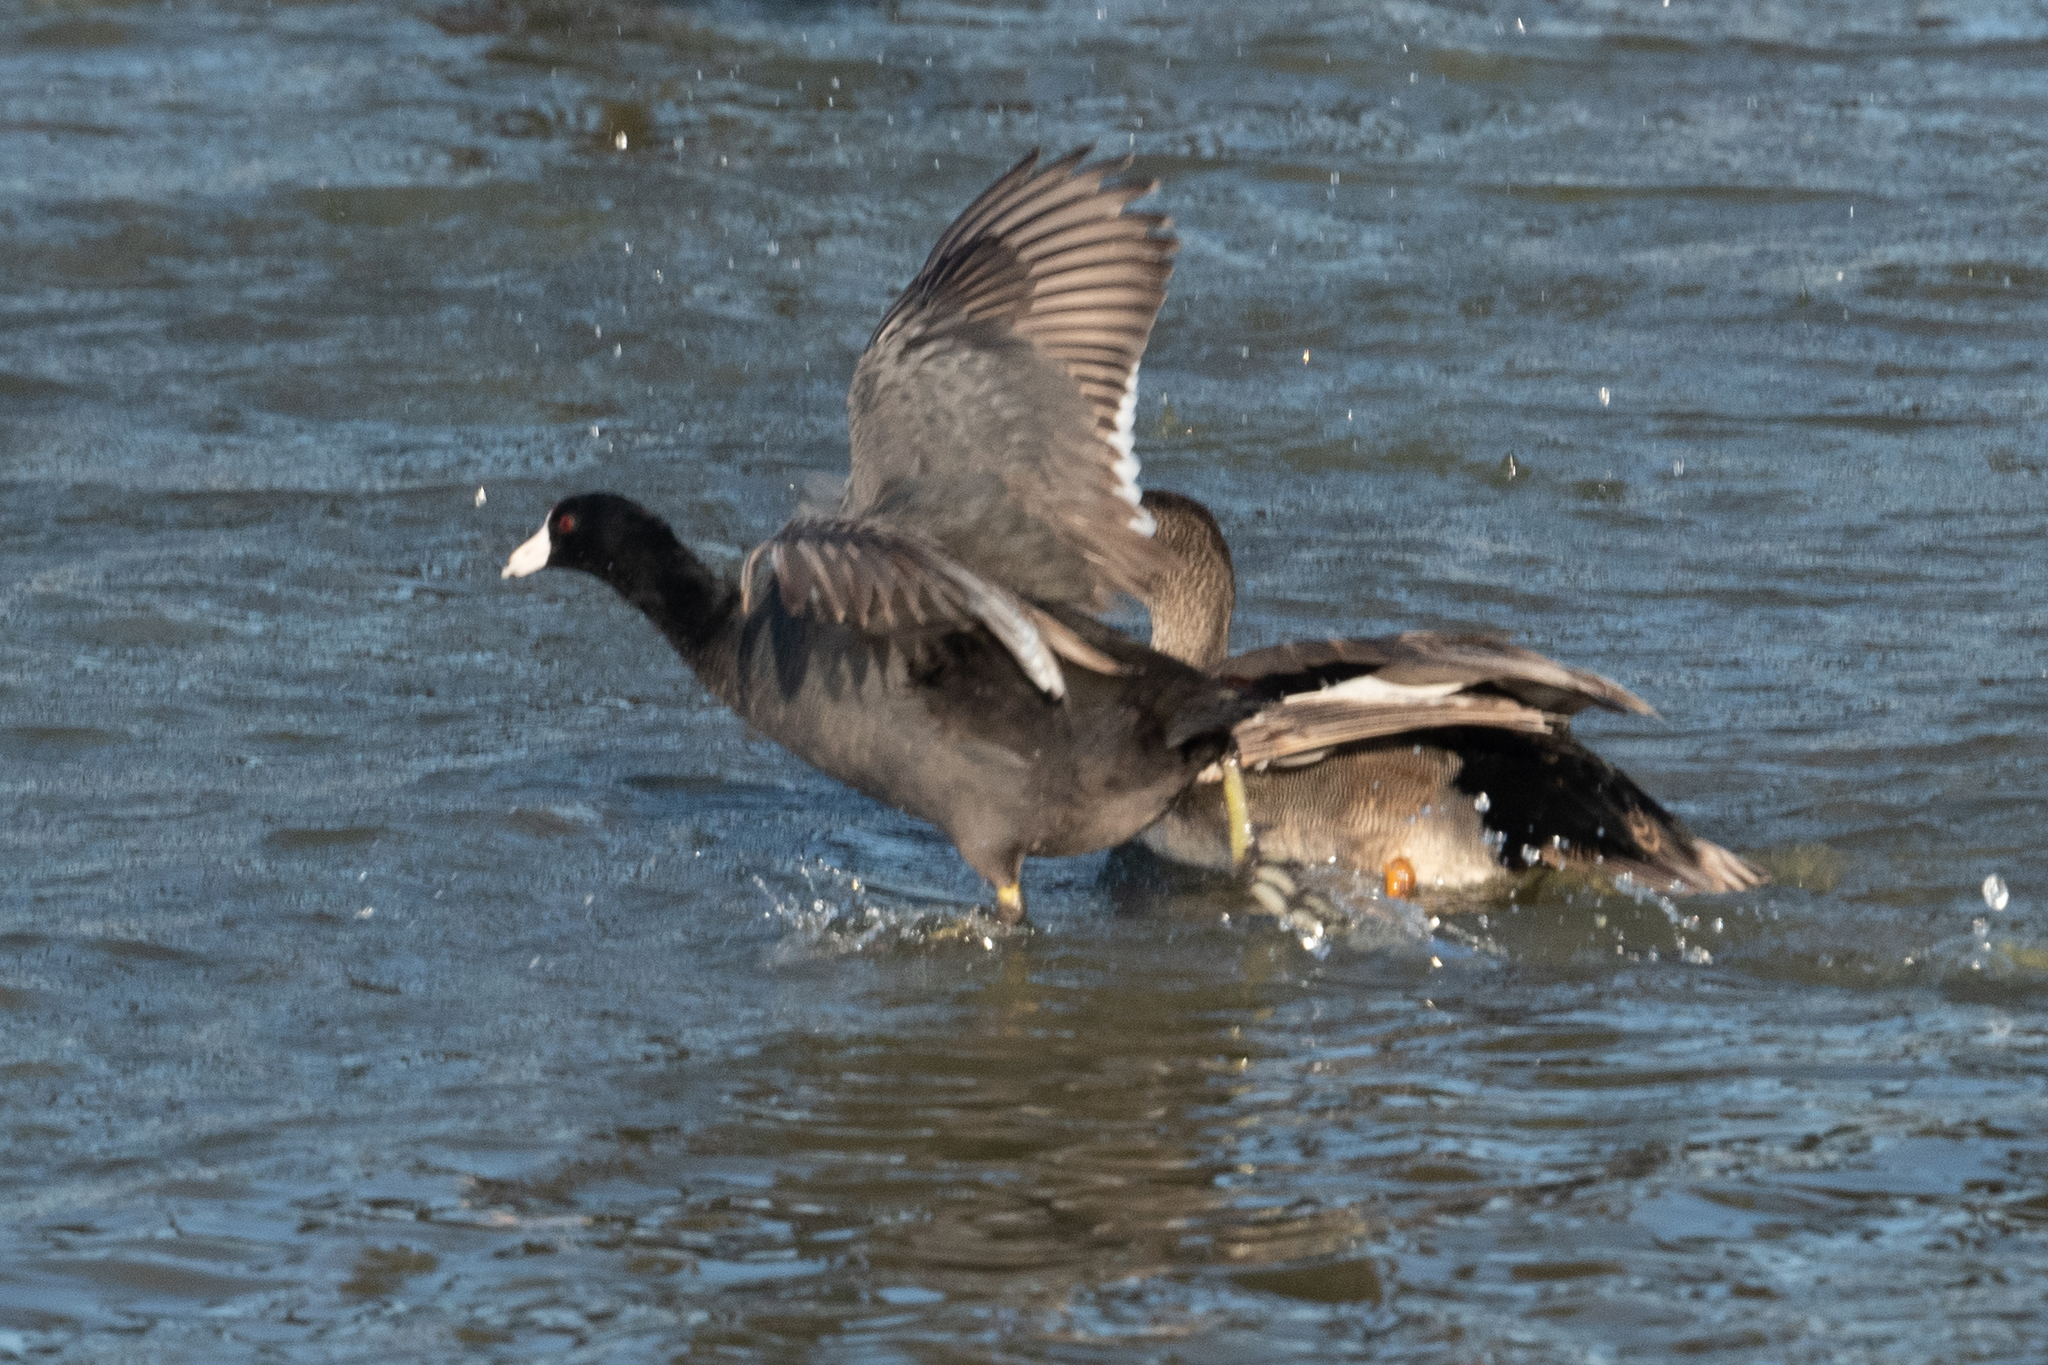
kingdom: Animalia
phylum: Chordata
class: Aves
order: Gruiformes
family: Rallidae
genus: Fulica
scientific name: Fulica americana
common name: American coot
